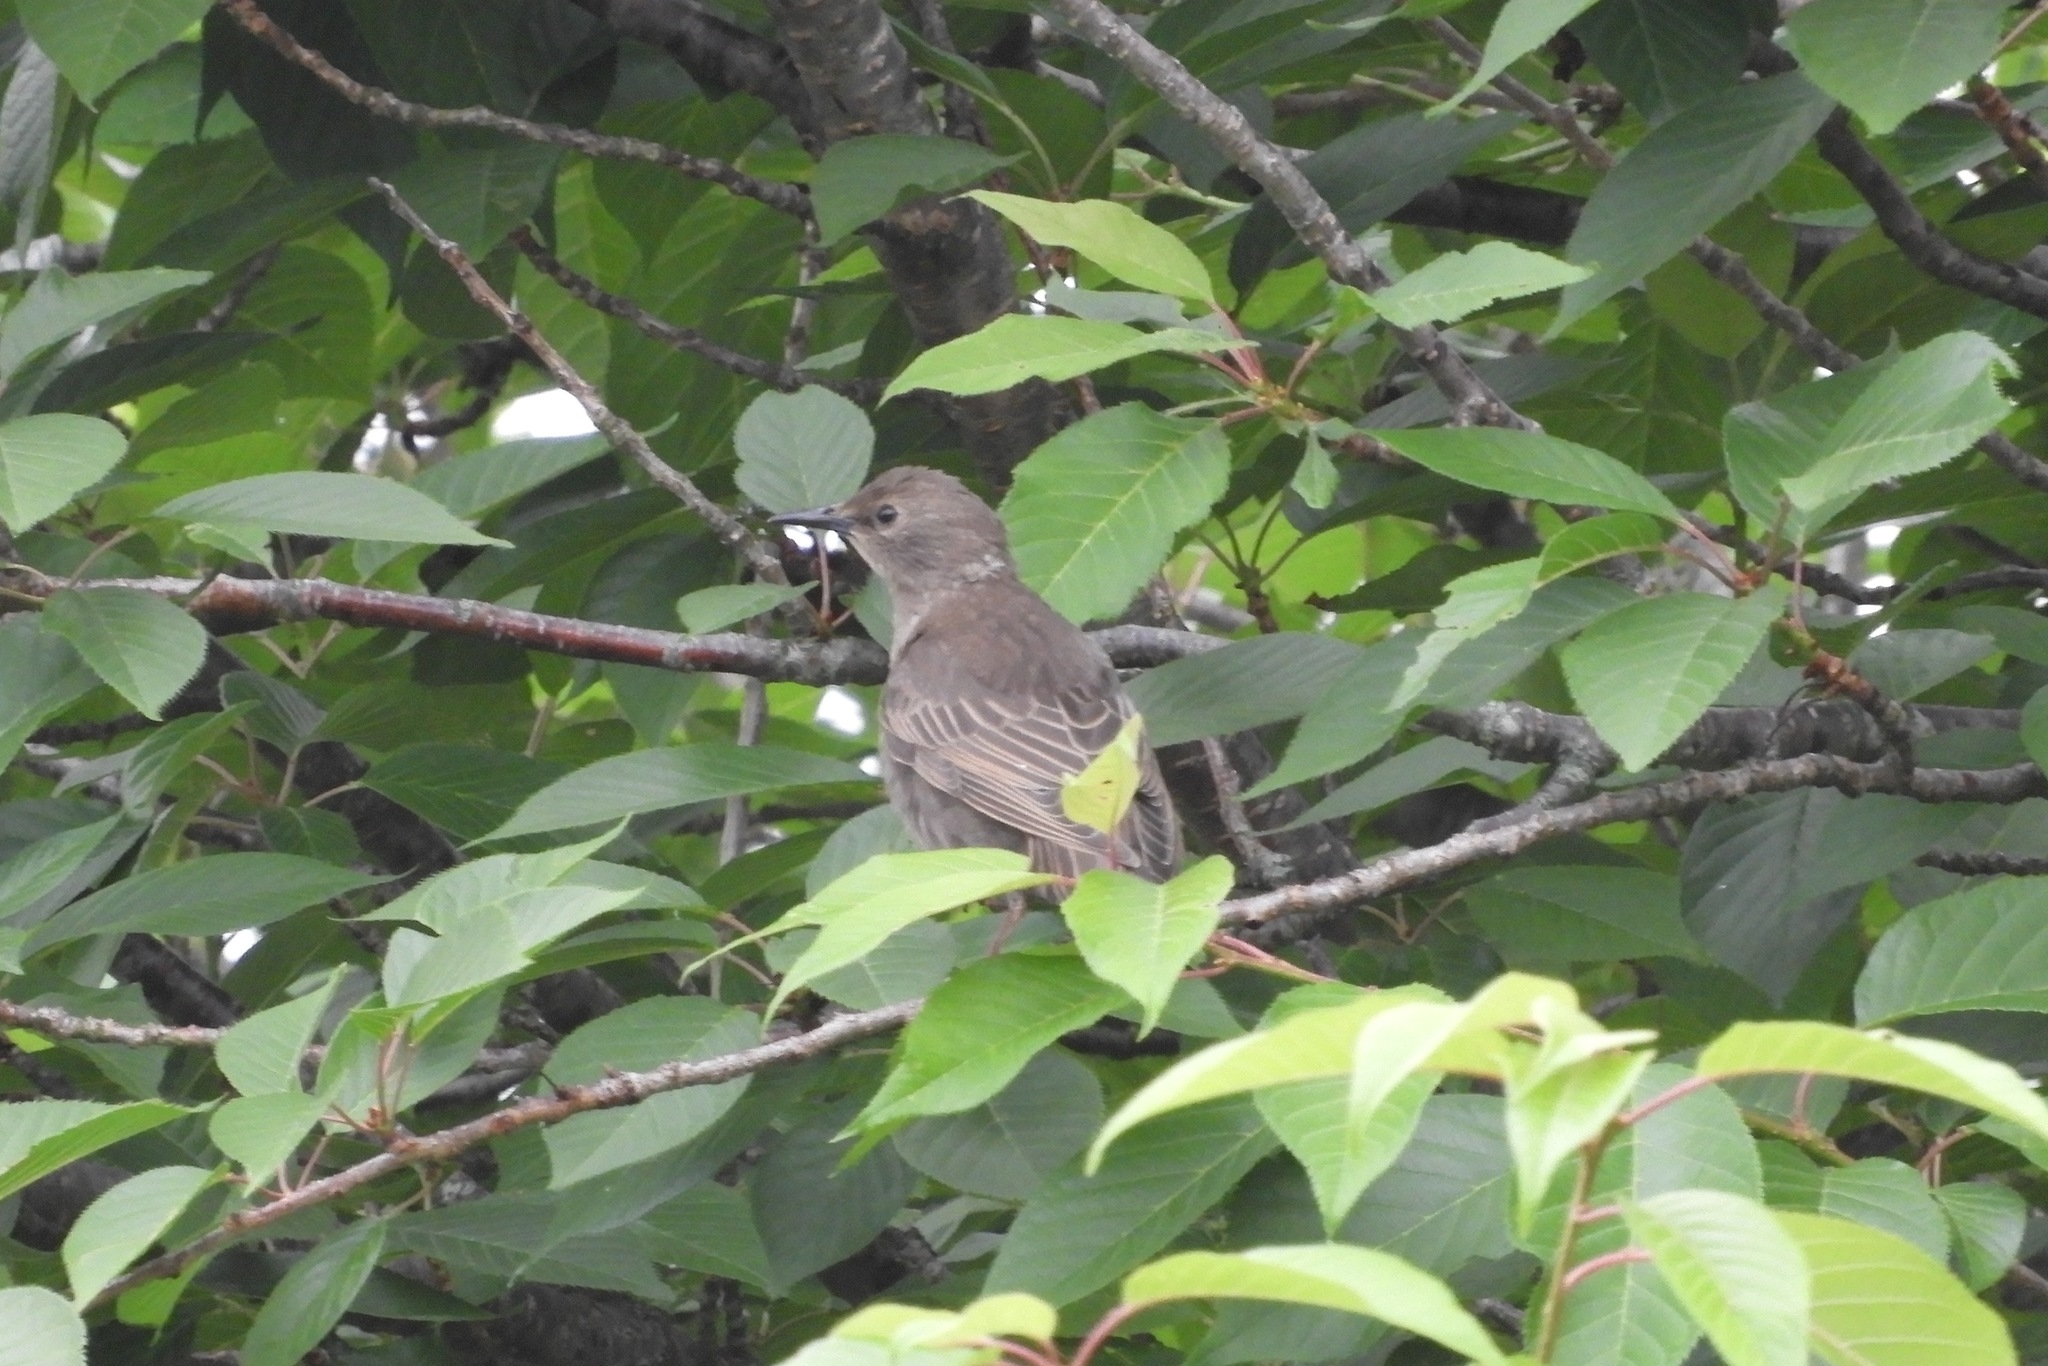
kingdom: Animalia
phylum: Chordata
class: Aves
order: Passeriformes
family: Sturnidae
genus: Sturnus
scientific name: Sturnus vulgaris
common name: Common starling
